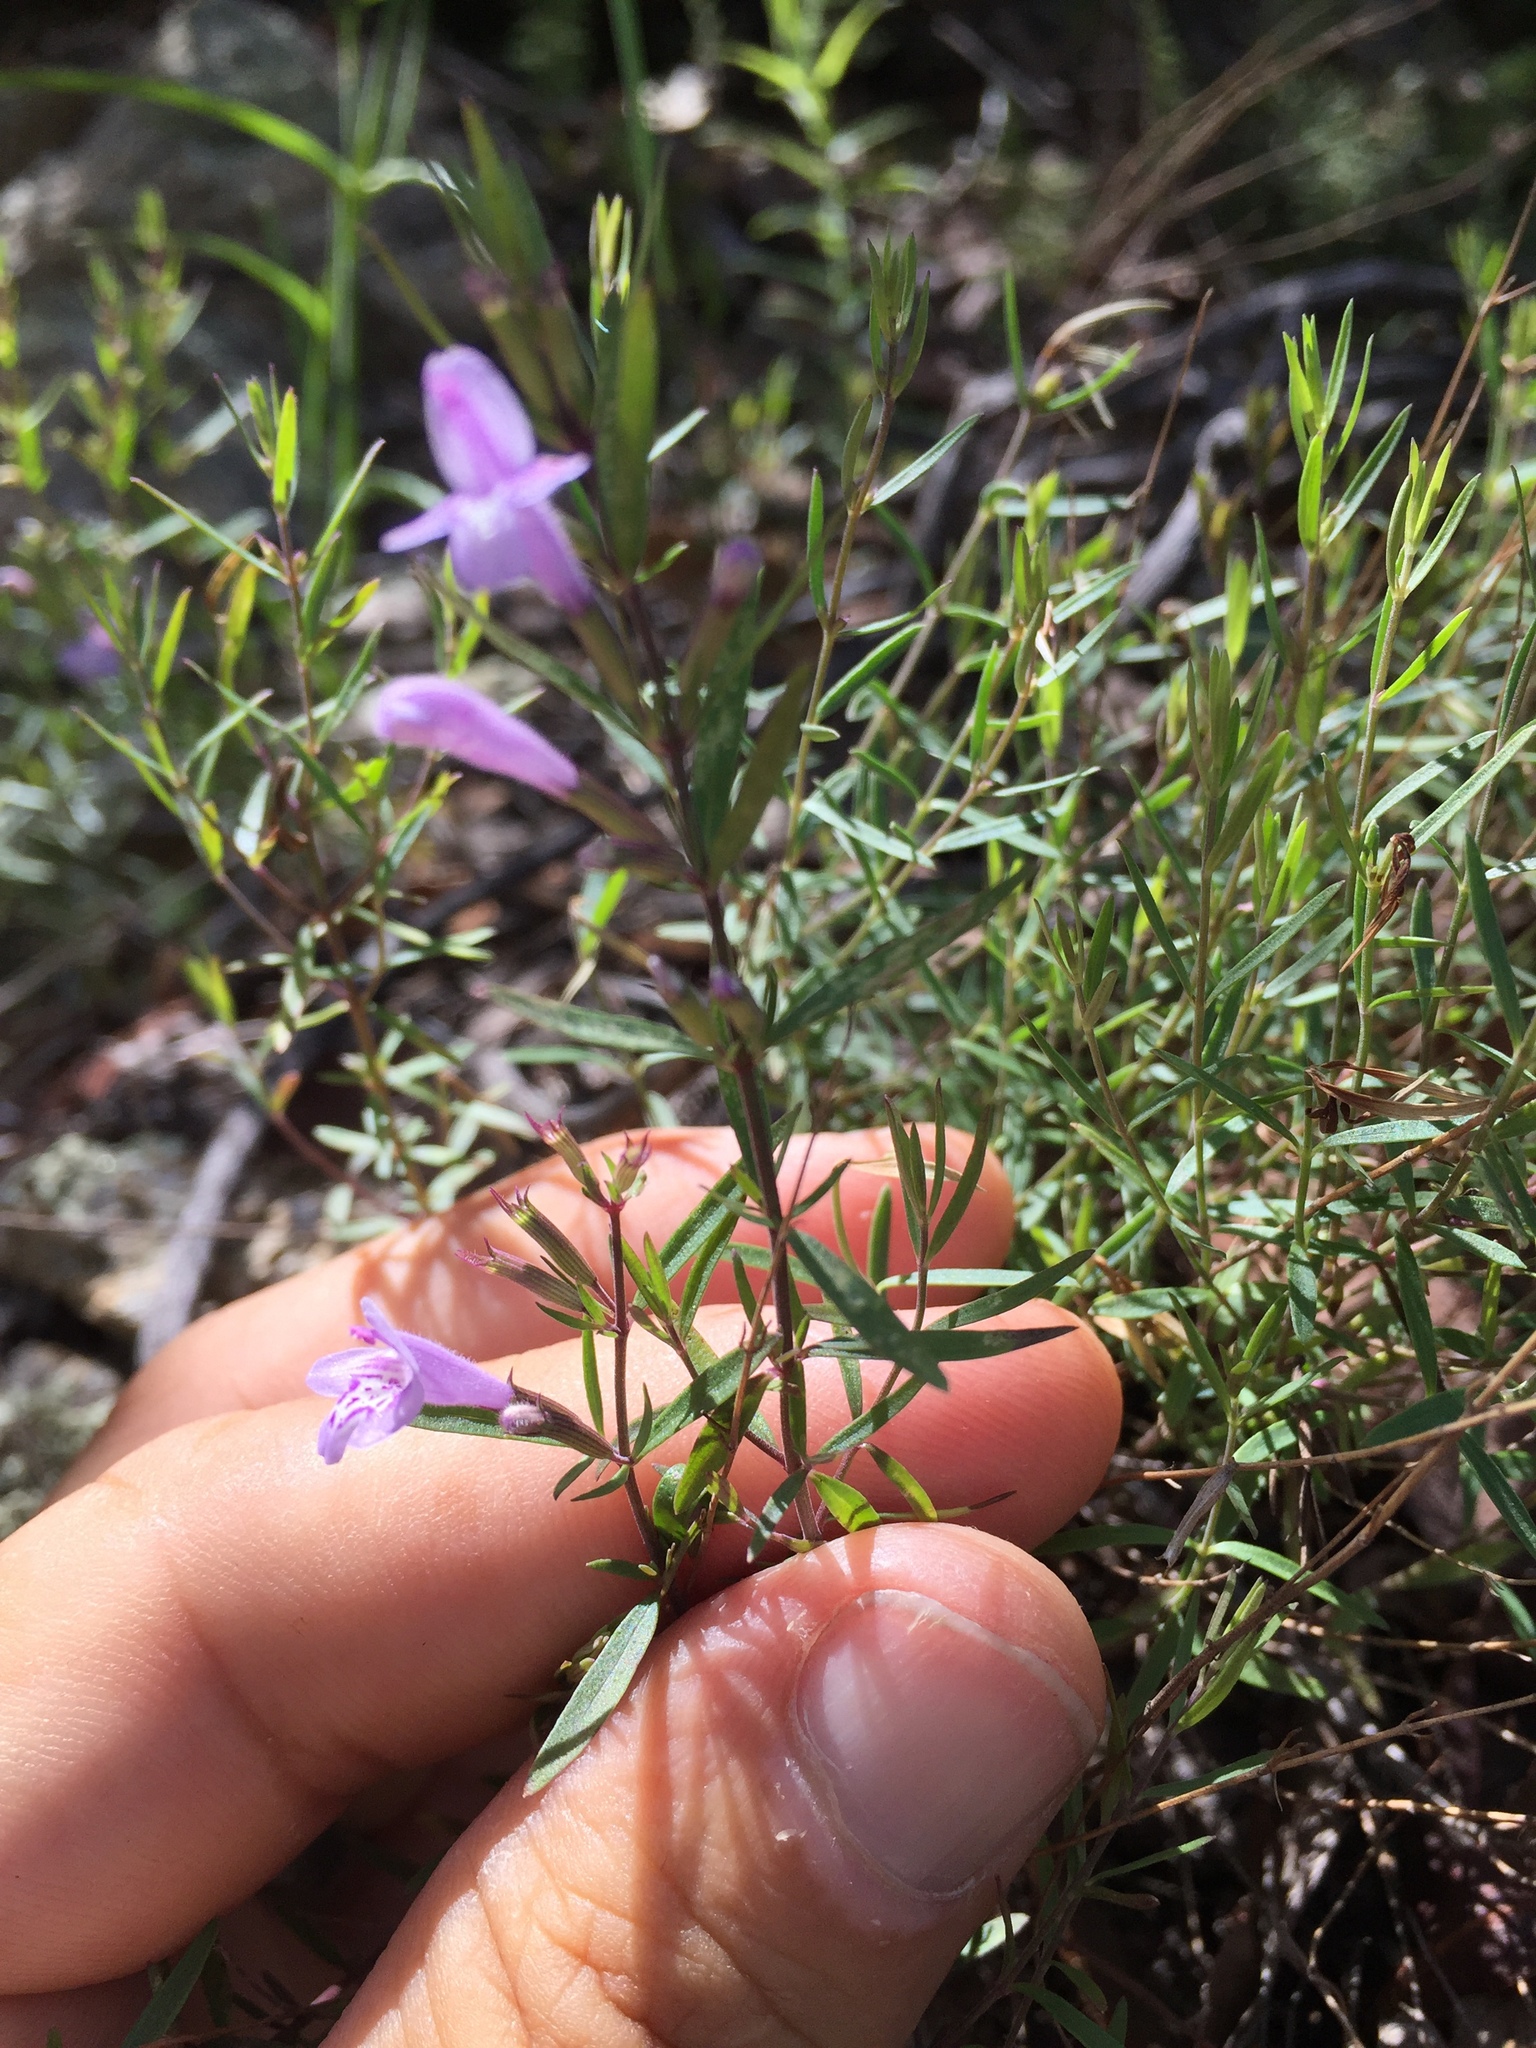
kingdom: Plantae
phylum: Tracheophyta
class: Magnoliopsida
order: Lamiales
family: Lamiaceae
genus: Hedeoma
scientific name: Hedeoma hyssopifolia
